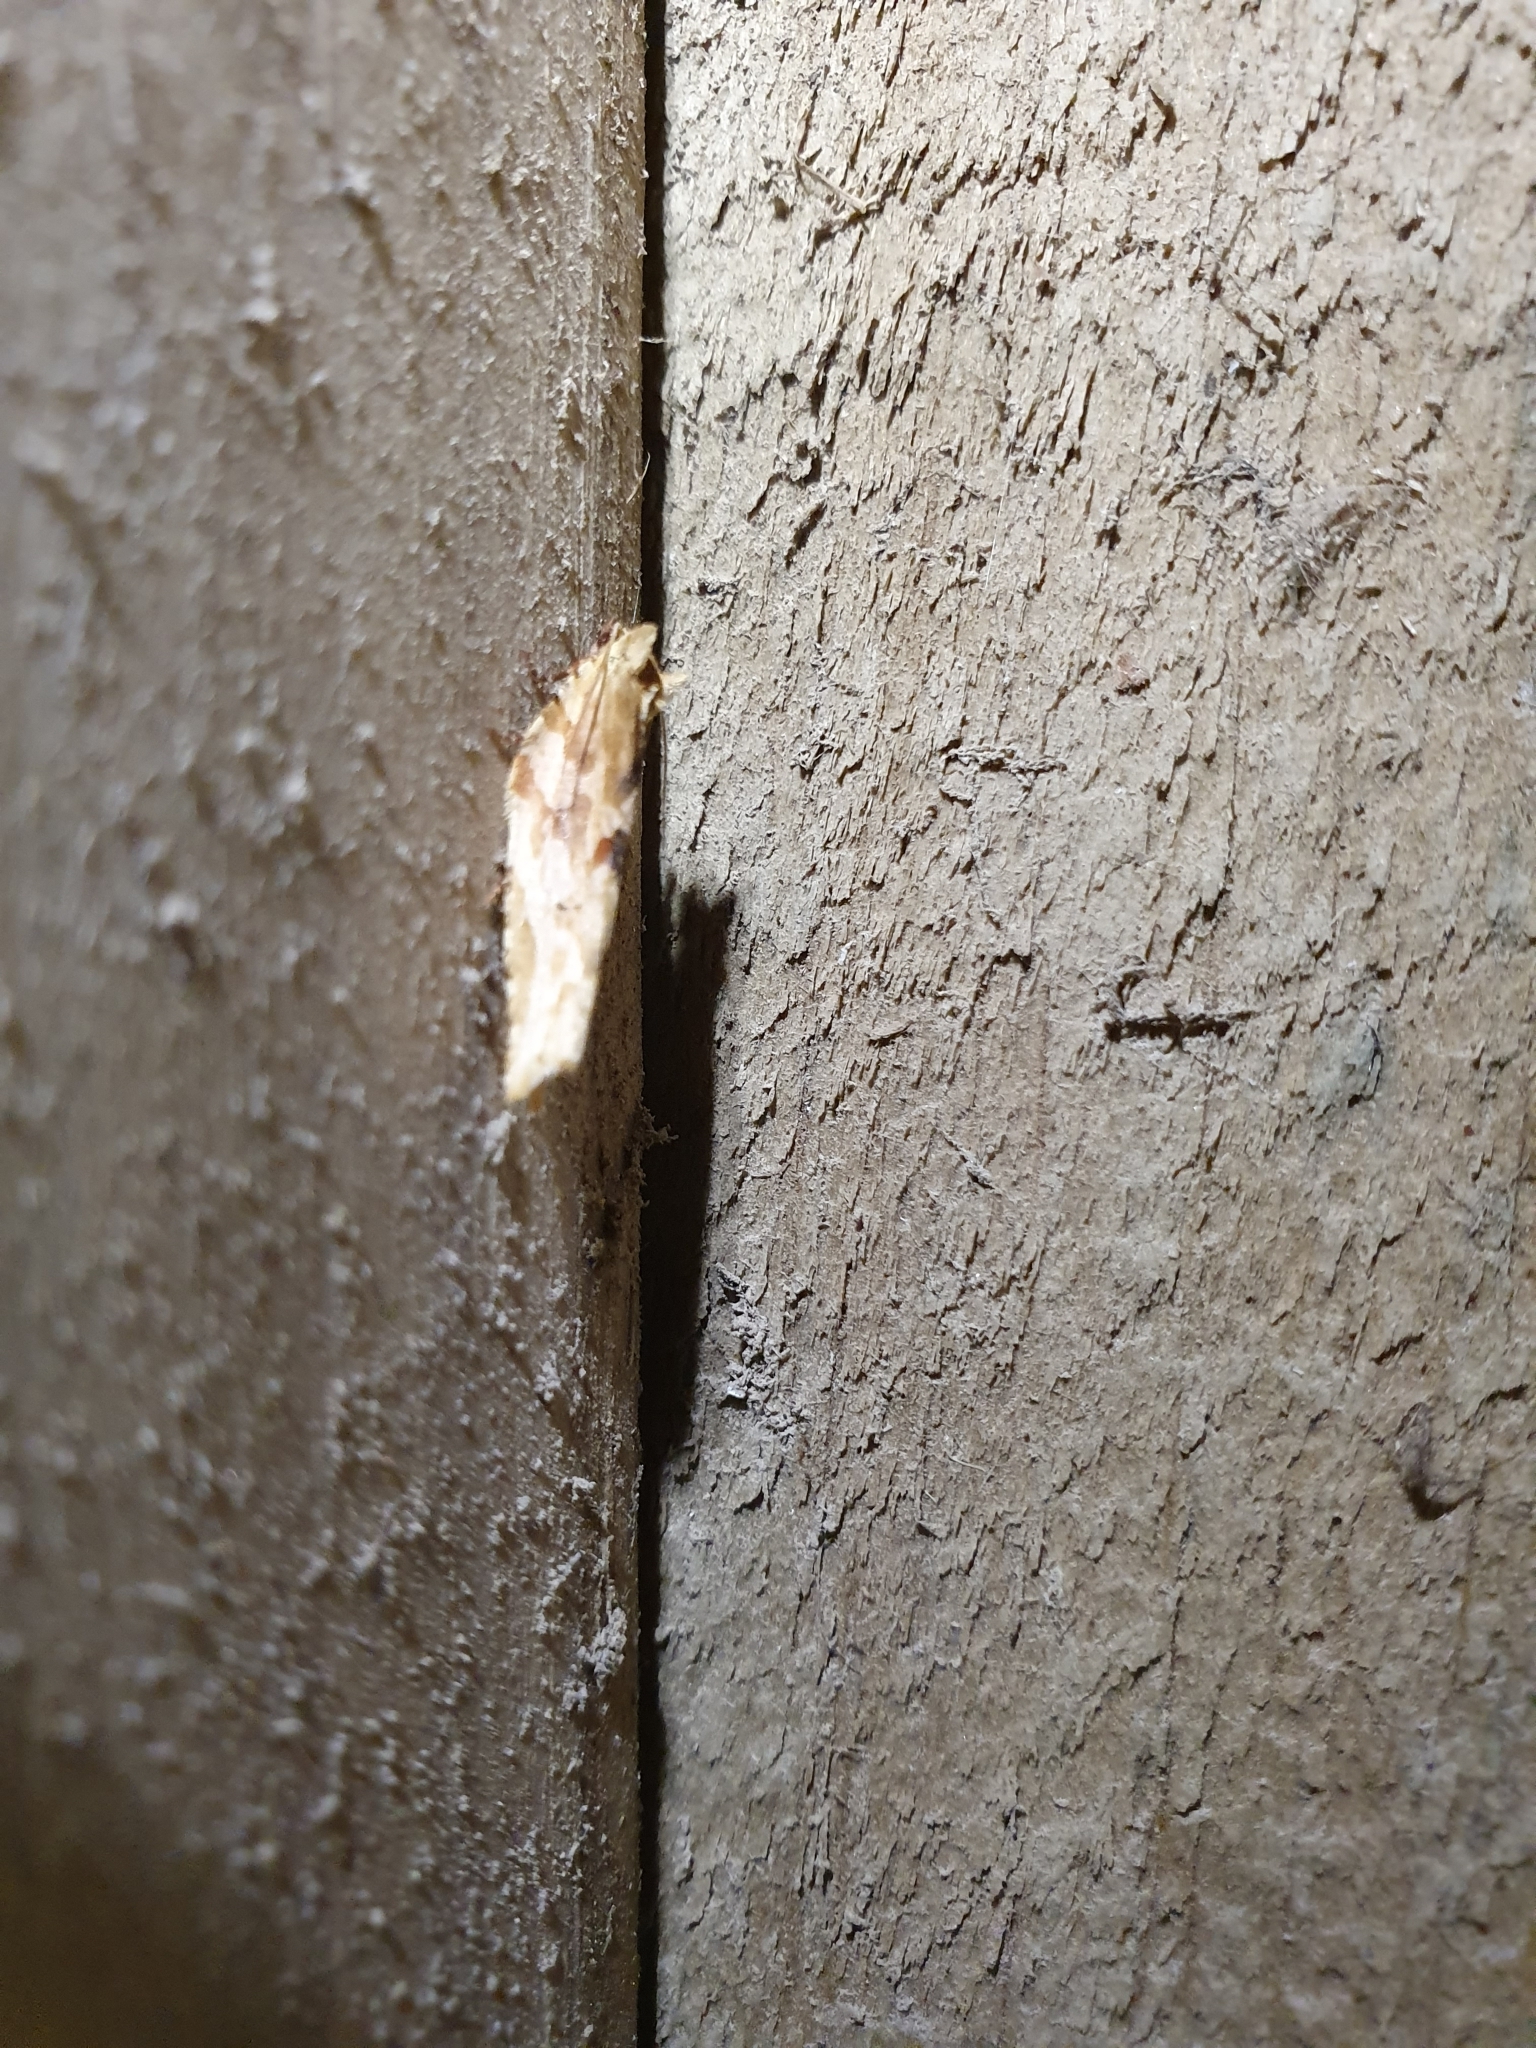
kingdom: Animalia
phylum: Arthropoda
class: Insecta
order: Lepidoptera
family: Tortricidae
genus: Epalxiphora
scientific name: Epalxiphora axenana
